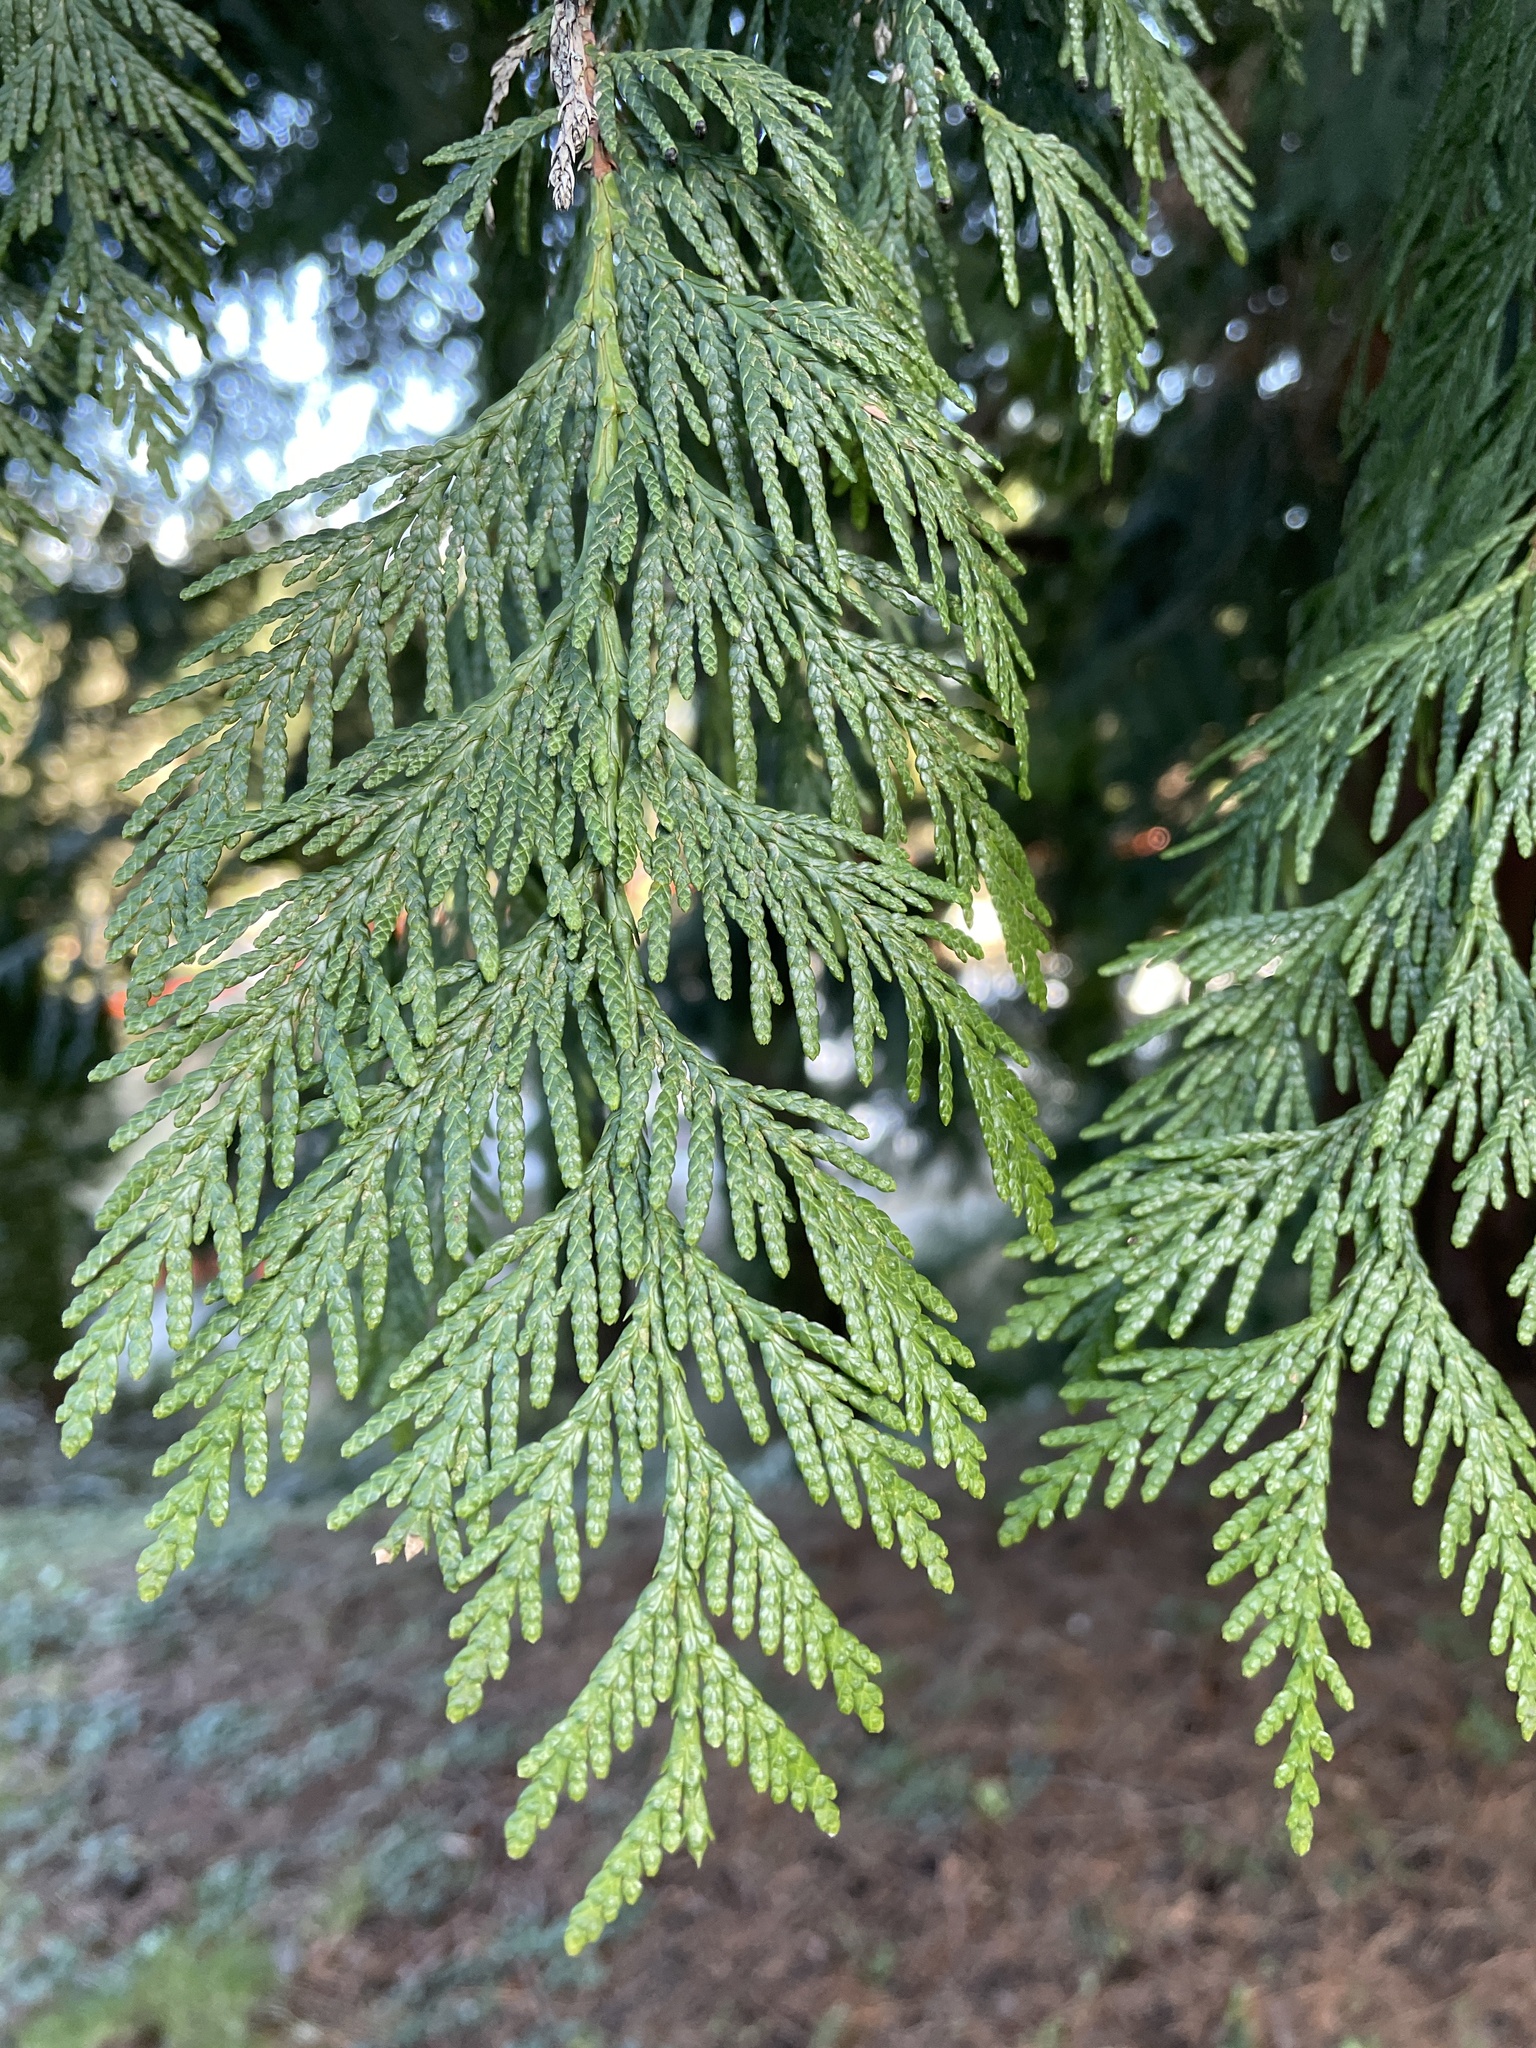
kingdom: Plantae
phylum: Tracheophyta
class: Pinopsida
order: Pinales
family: Cupressaceae
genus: Thuja
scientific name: Thuja plicata
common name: Western red-cedar
